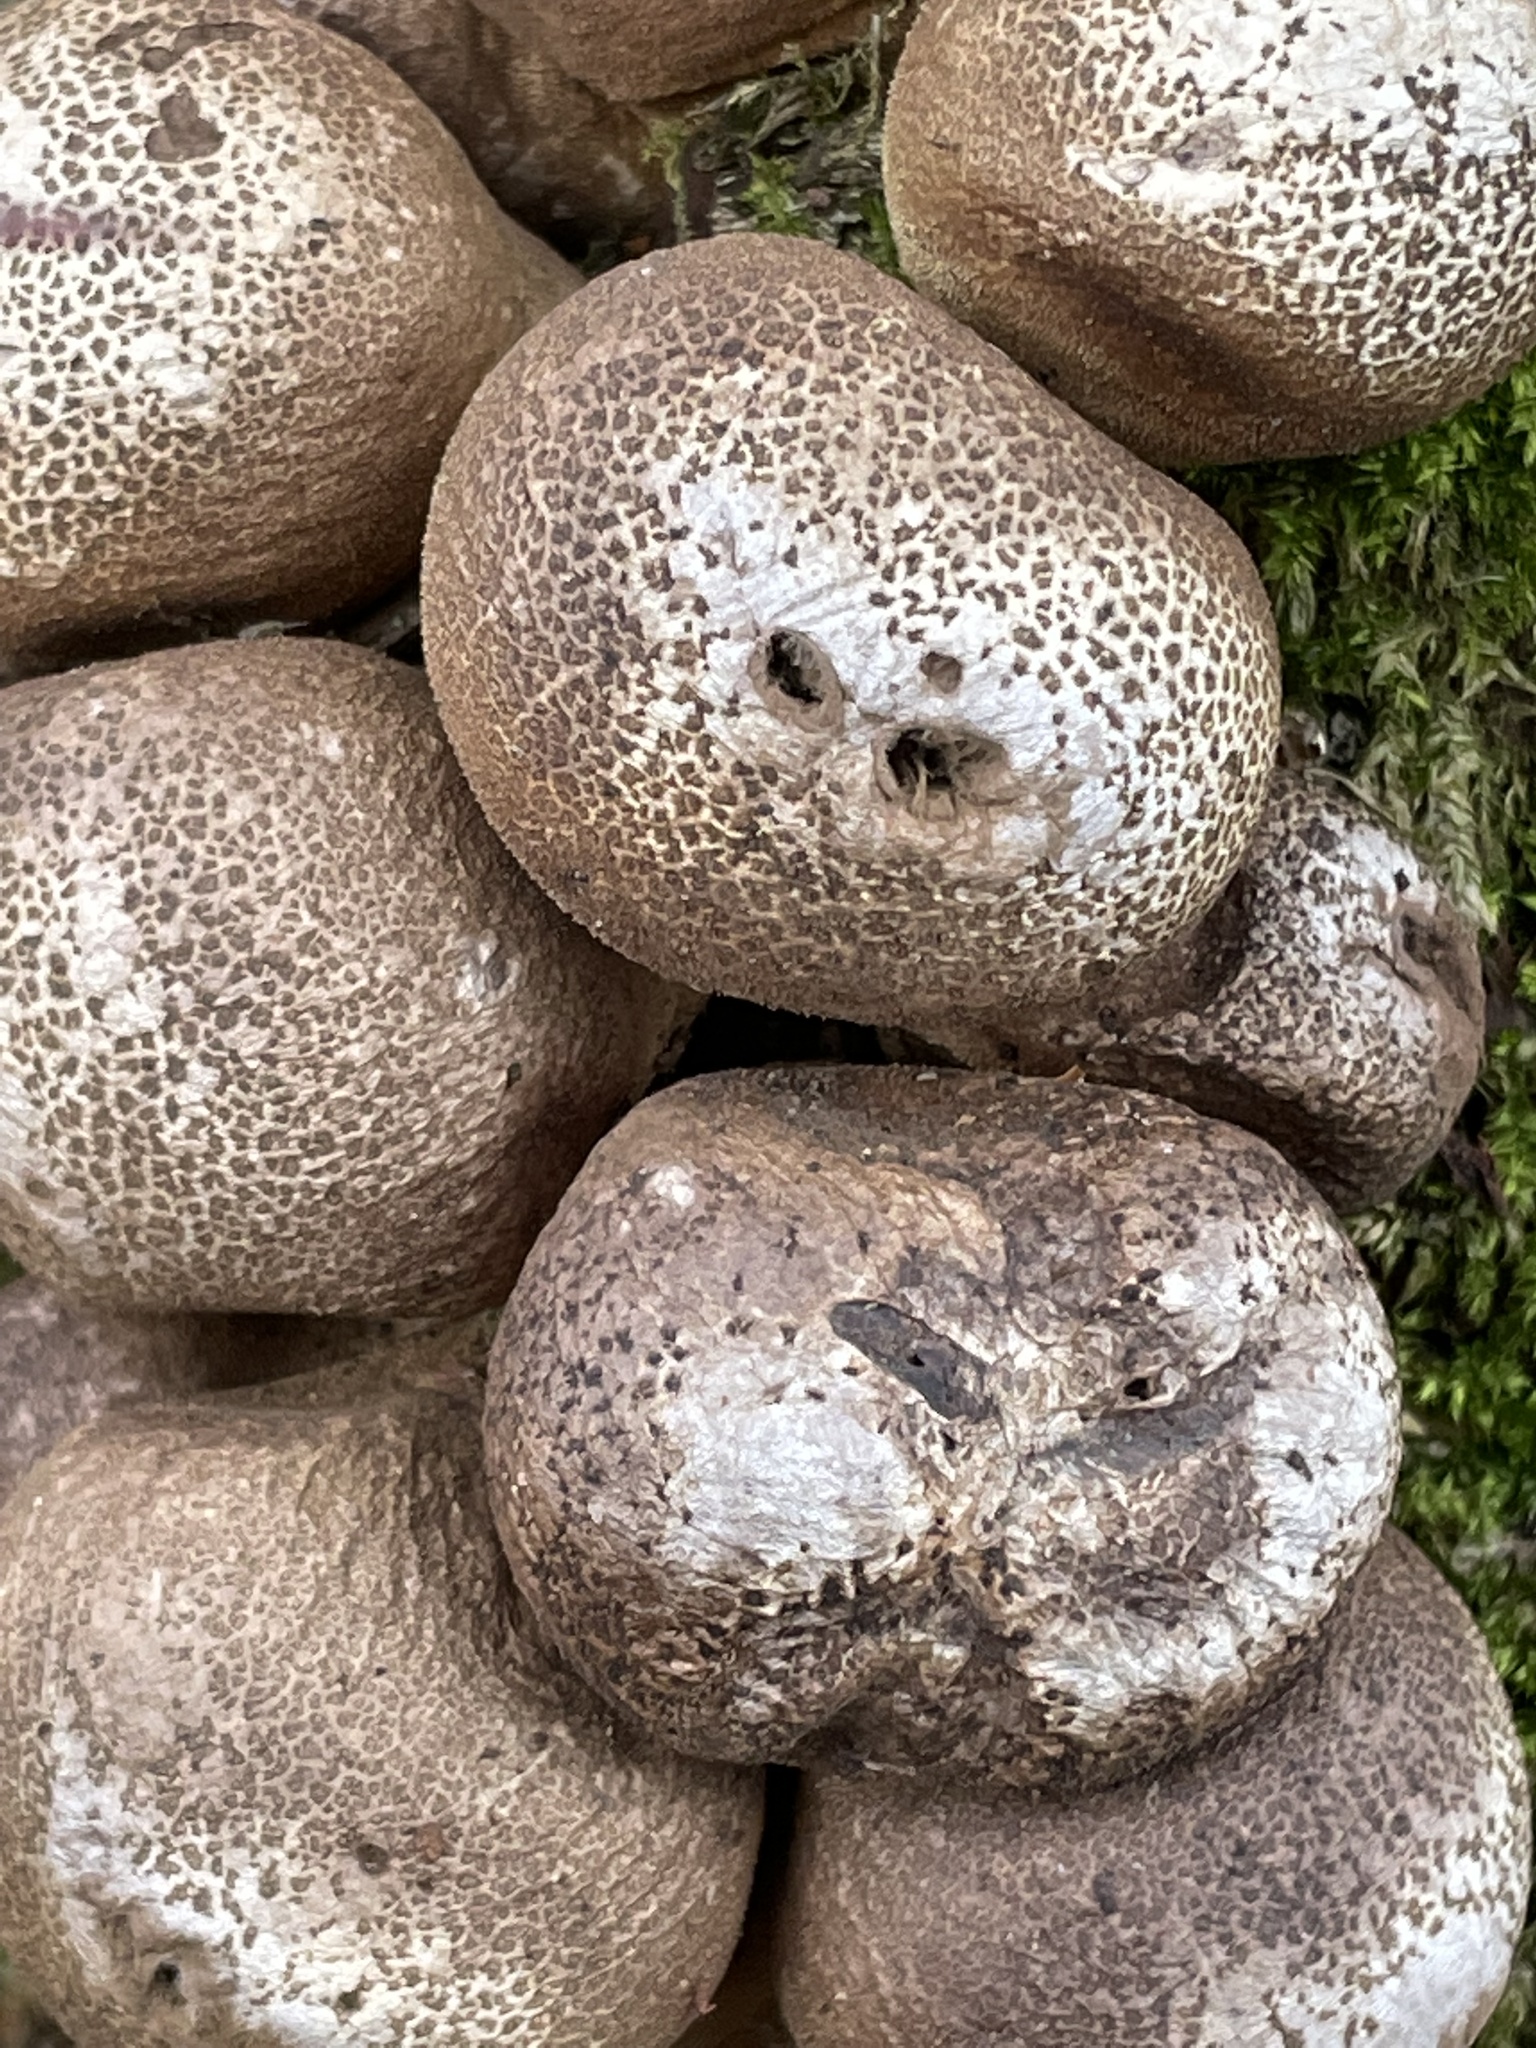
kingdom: Fungi
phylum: Basidiomycota
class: Agaricomycetes
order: Agaricales
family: Lycoperdaceae
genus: Apioperdon
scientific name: Apioperdon pyriforme
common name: Pear-shaped puffball
